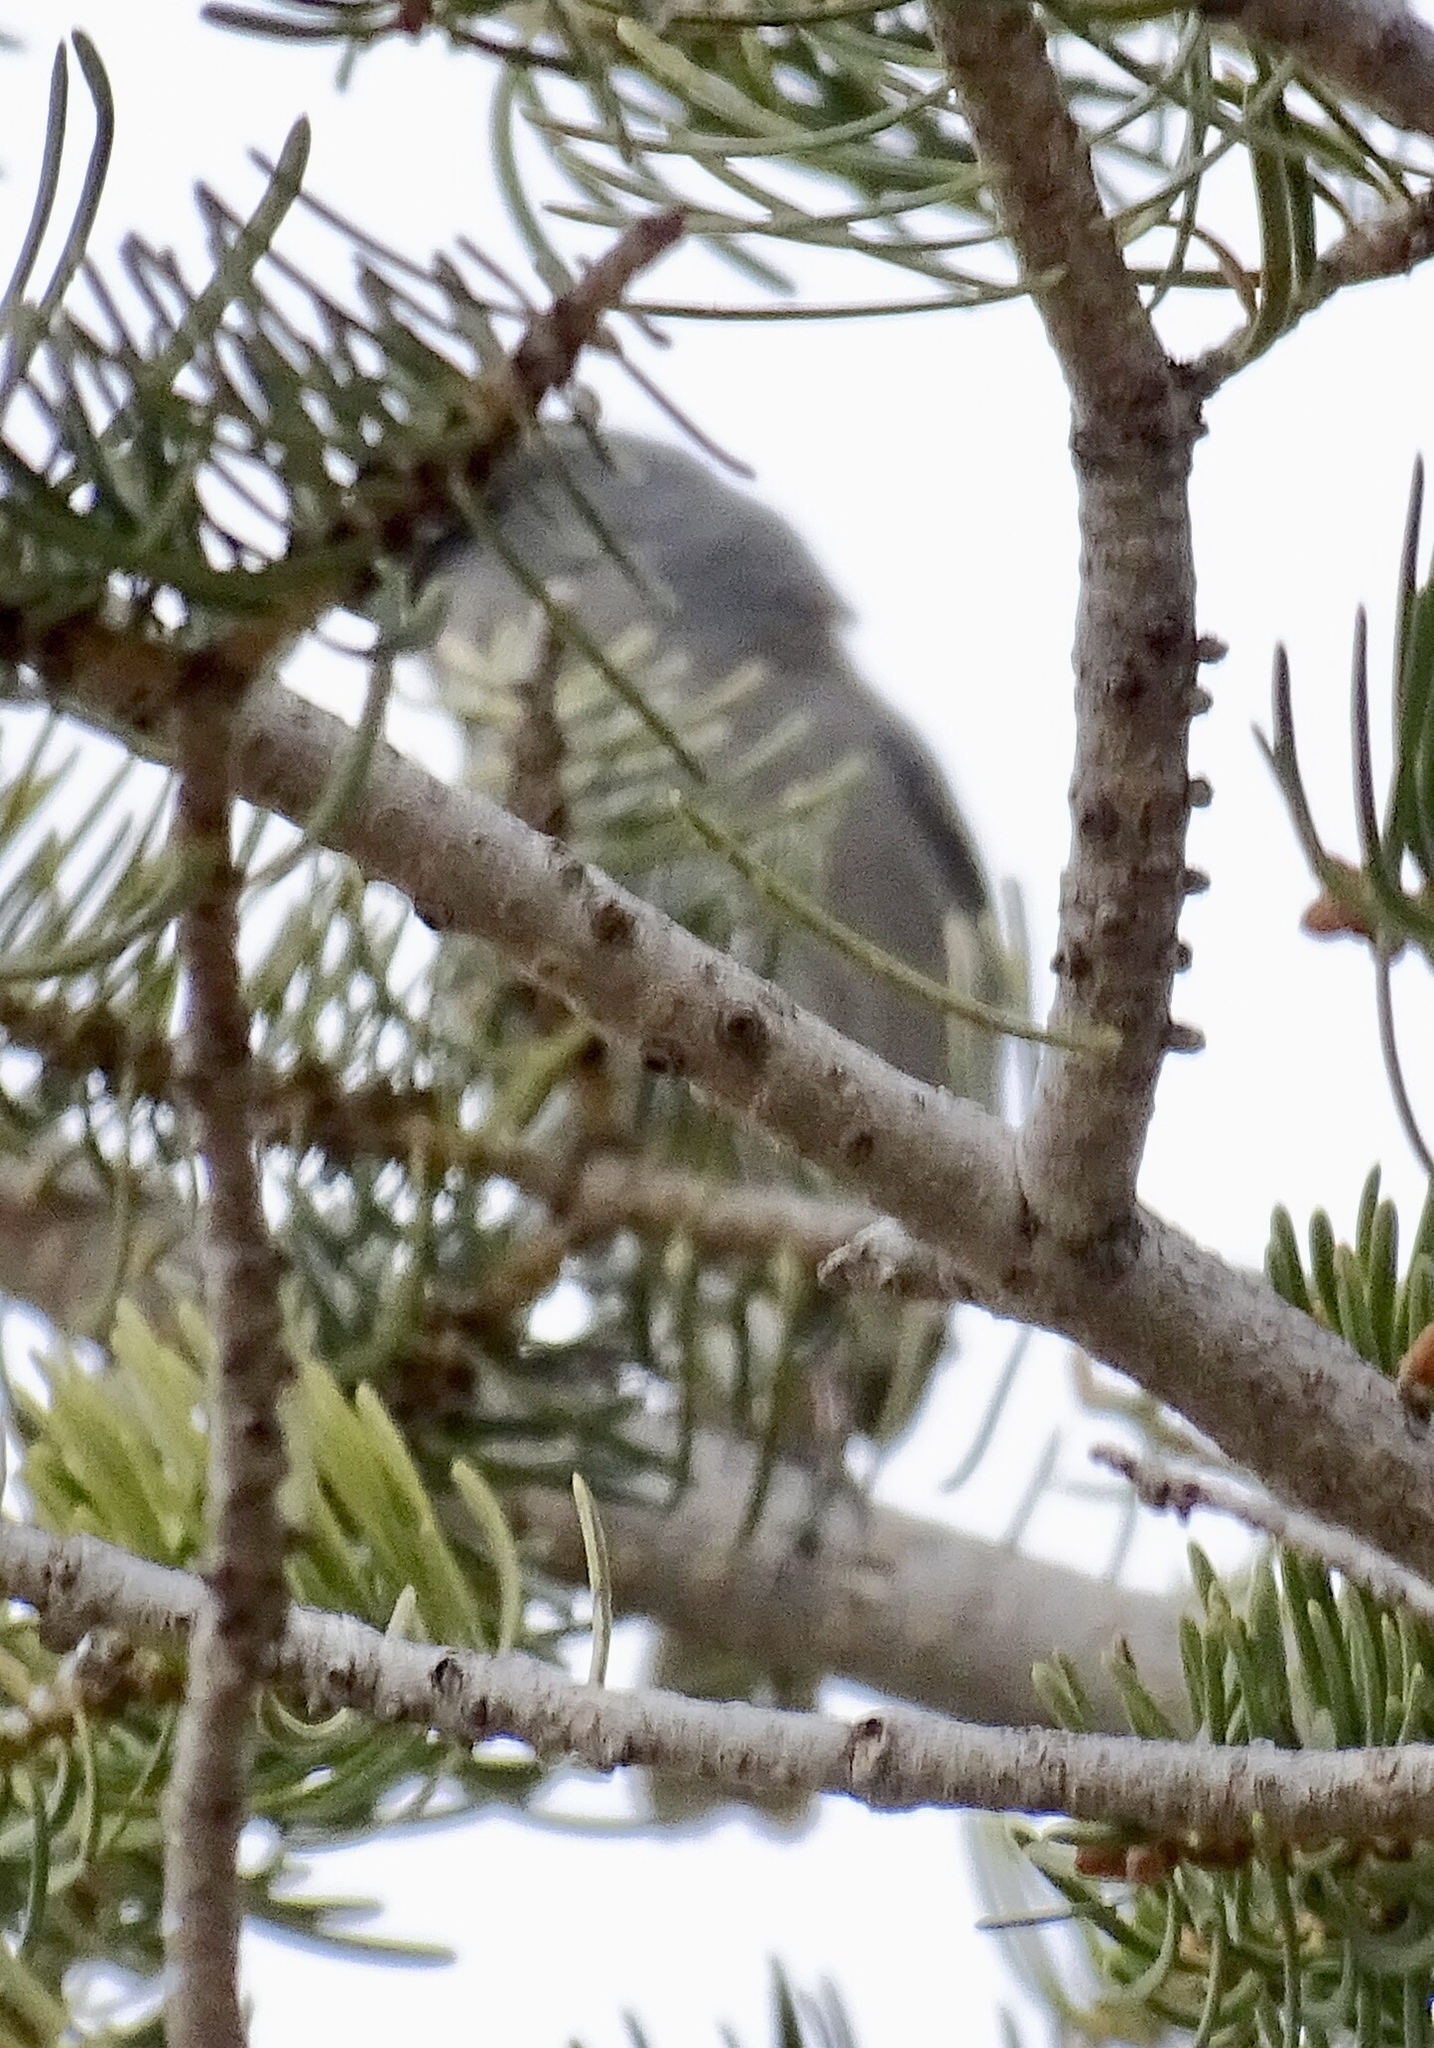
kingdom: Animalia
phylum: Chordata
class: Aves
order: Passeriformes
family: Passerellidae
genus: Junco
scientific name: Junco hyemalis
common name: Dark-eyed junco
